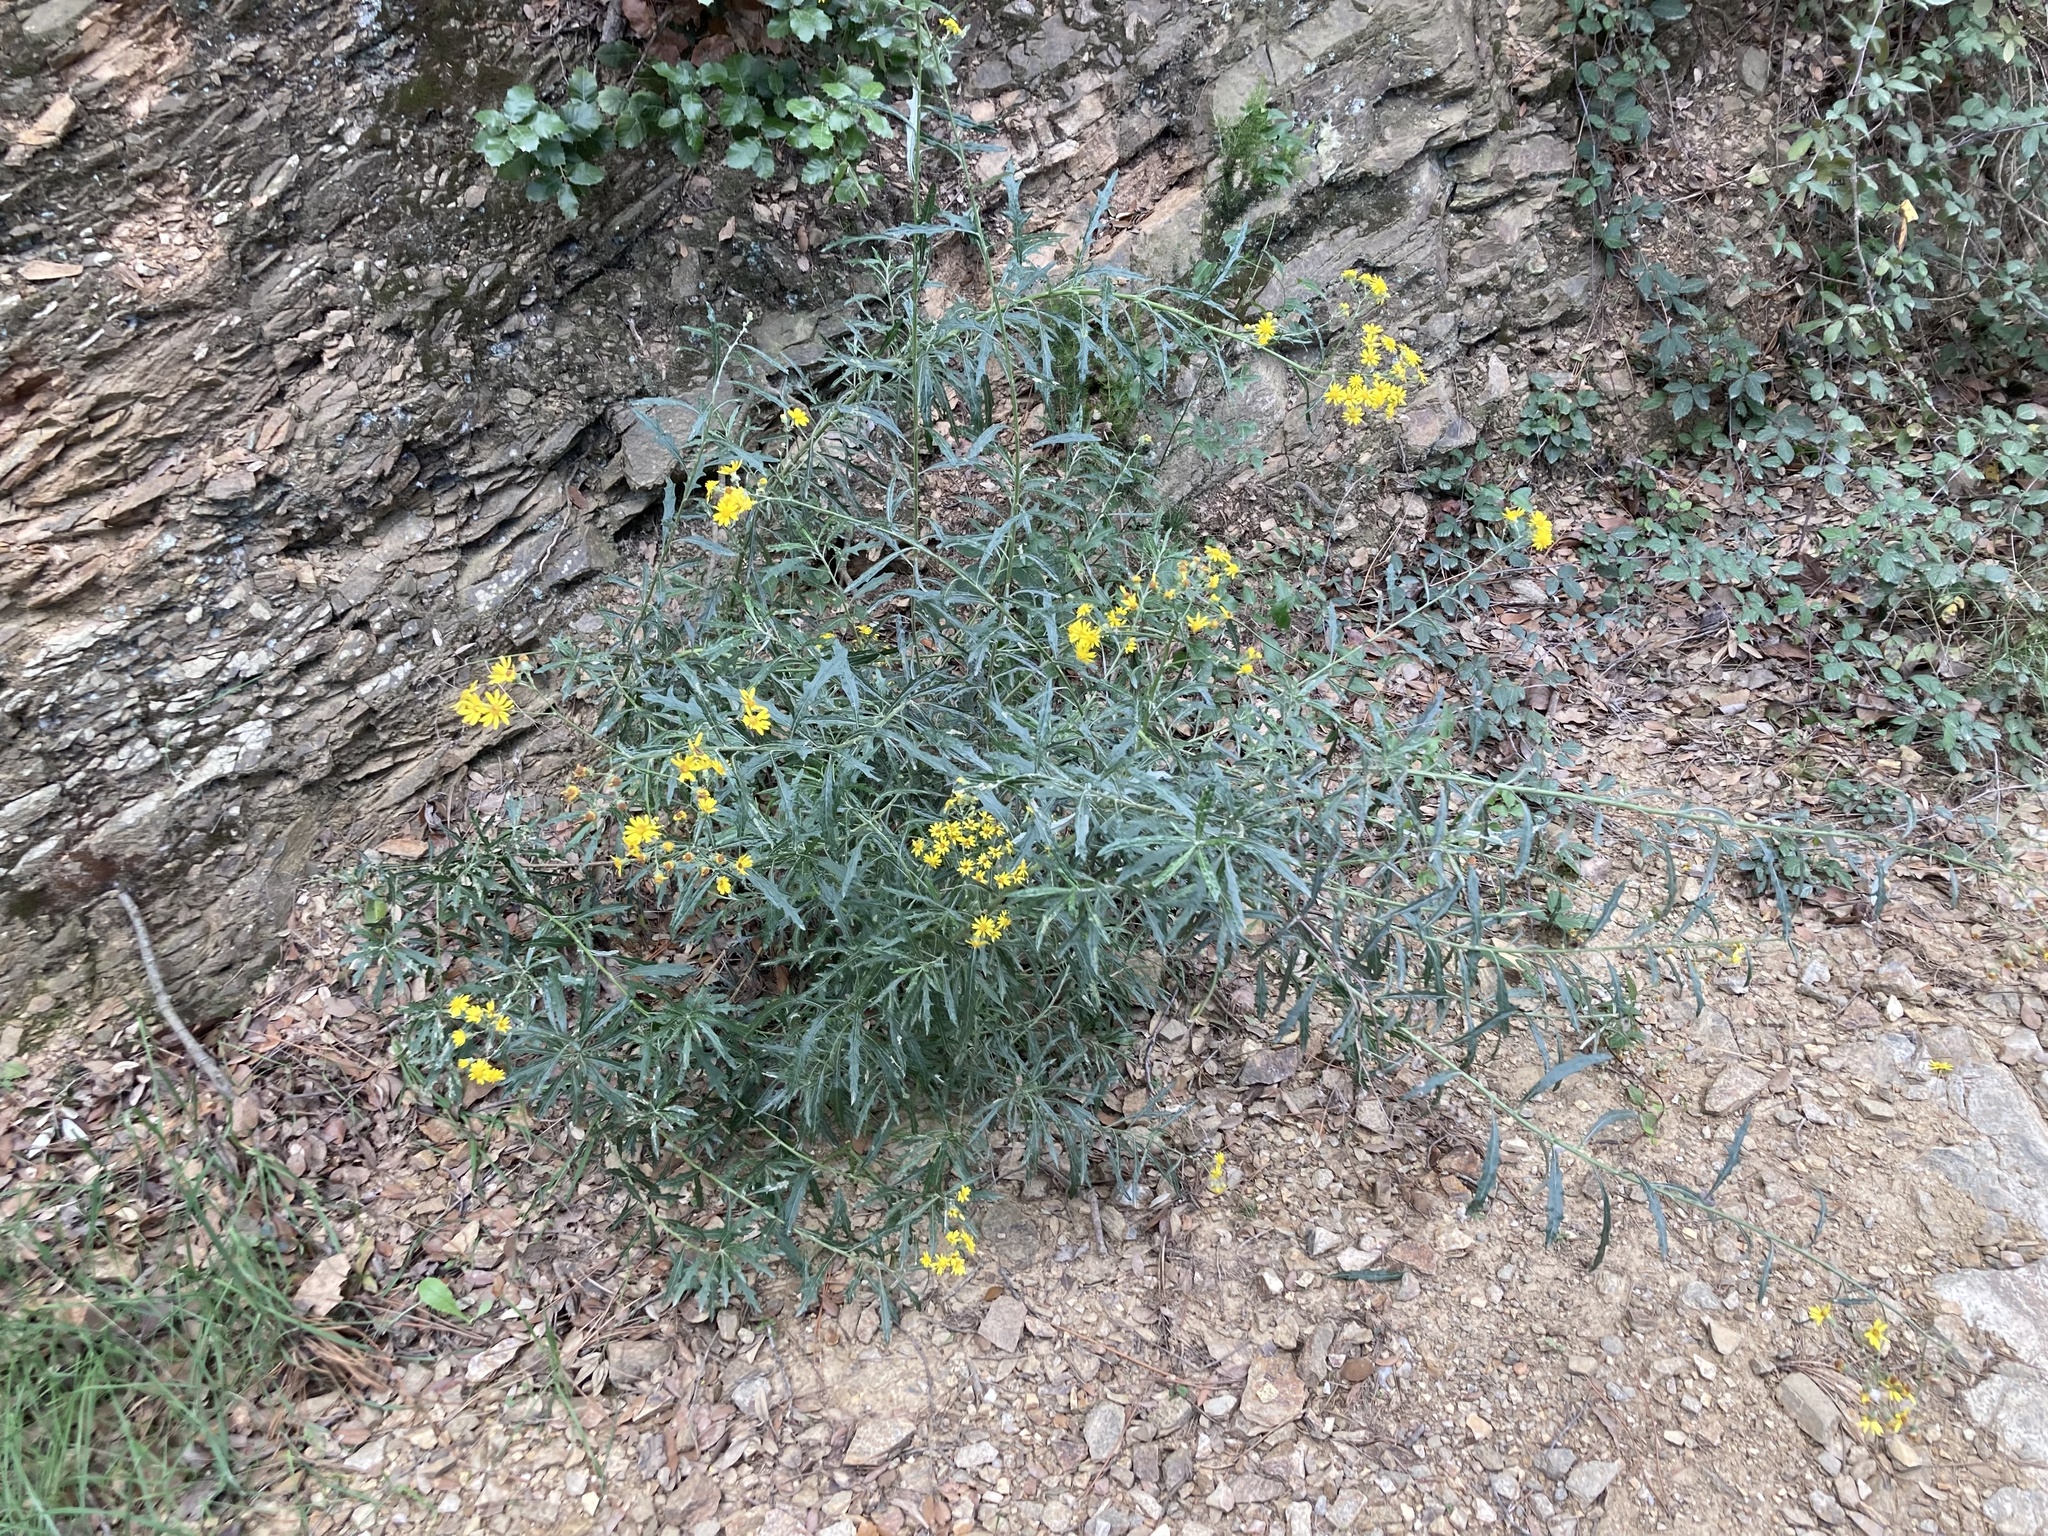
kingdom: Plantae
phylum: Tracheophyta
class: Magnoliopsida
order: Asterales
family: Asteraceae
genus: Senecio
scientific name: Senecio pterophorus
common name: Shoddy ragwort
